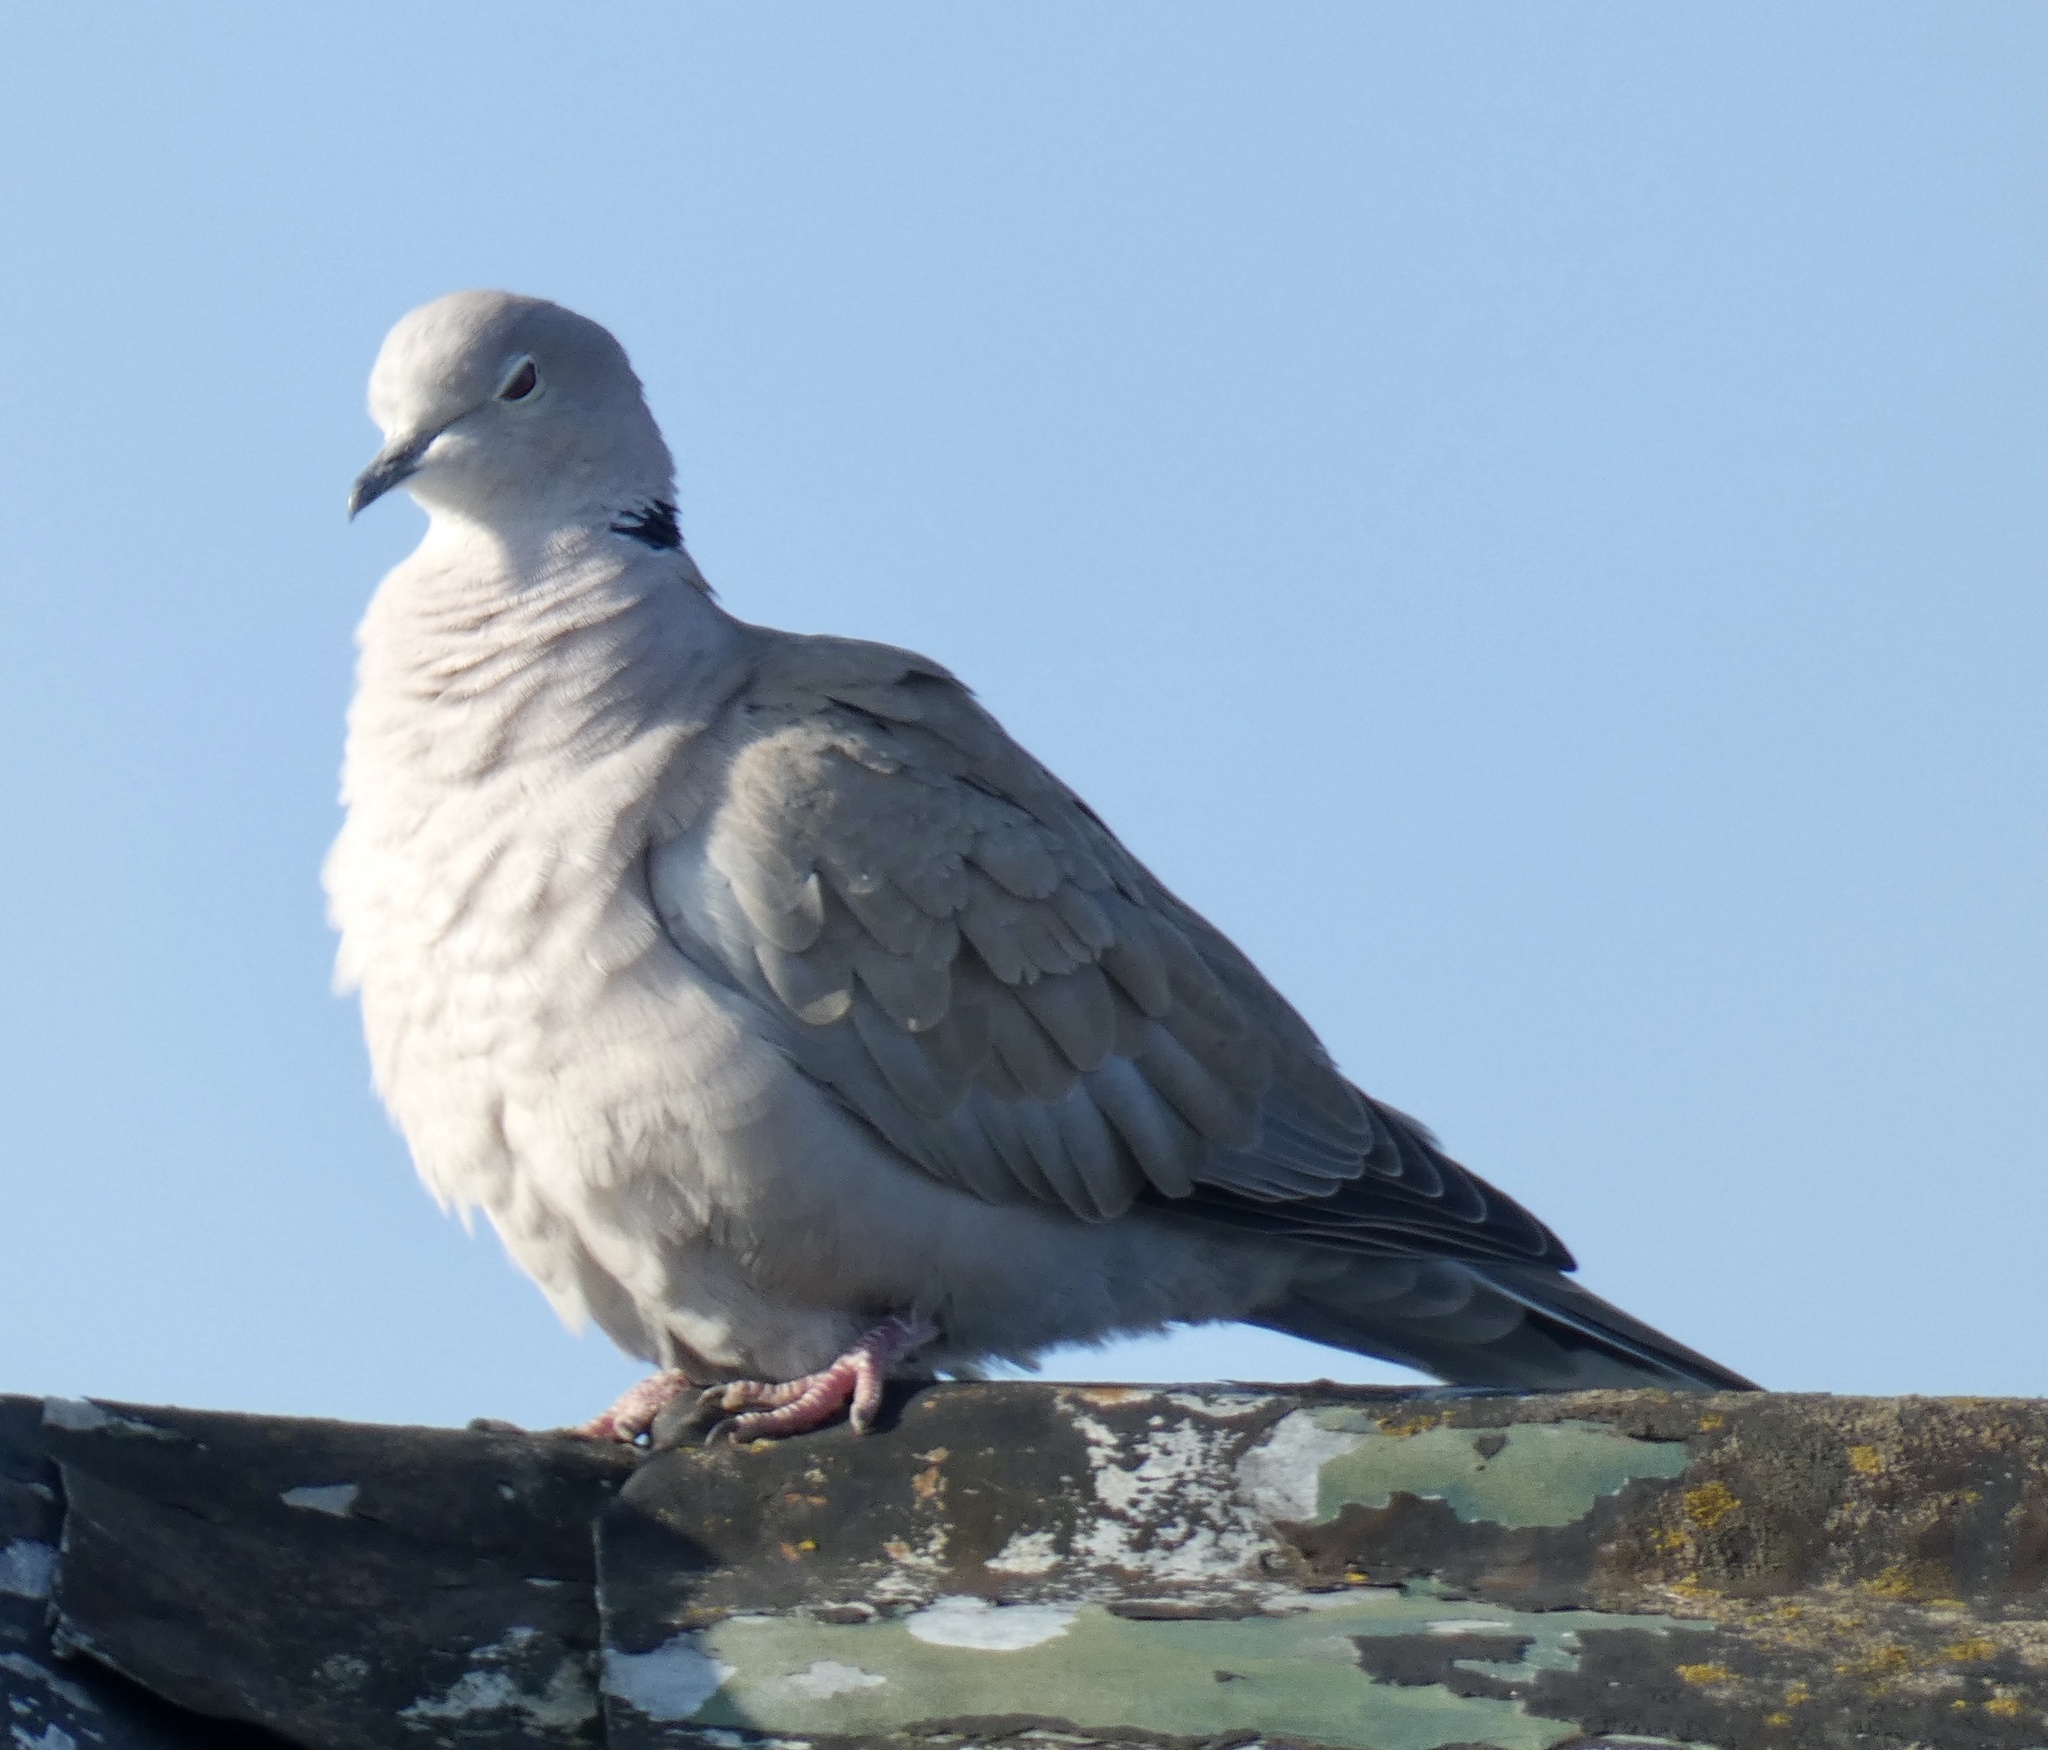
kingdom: Animalia
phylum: Chordata
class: Aves
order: Columbiformes
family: Columbidae
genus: Streptopelia
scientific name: Streptopelia decaocto
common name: Eurasian collared dove
